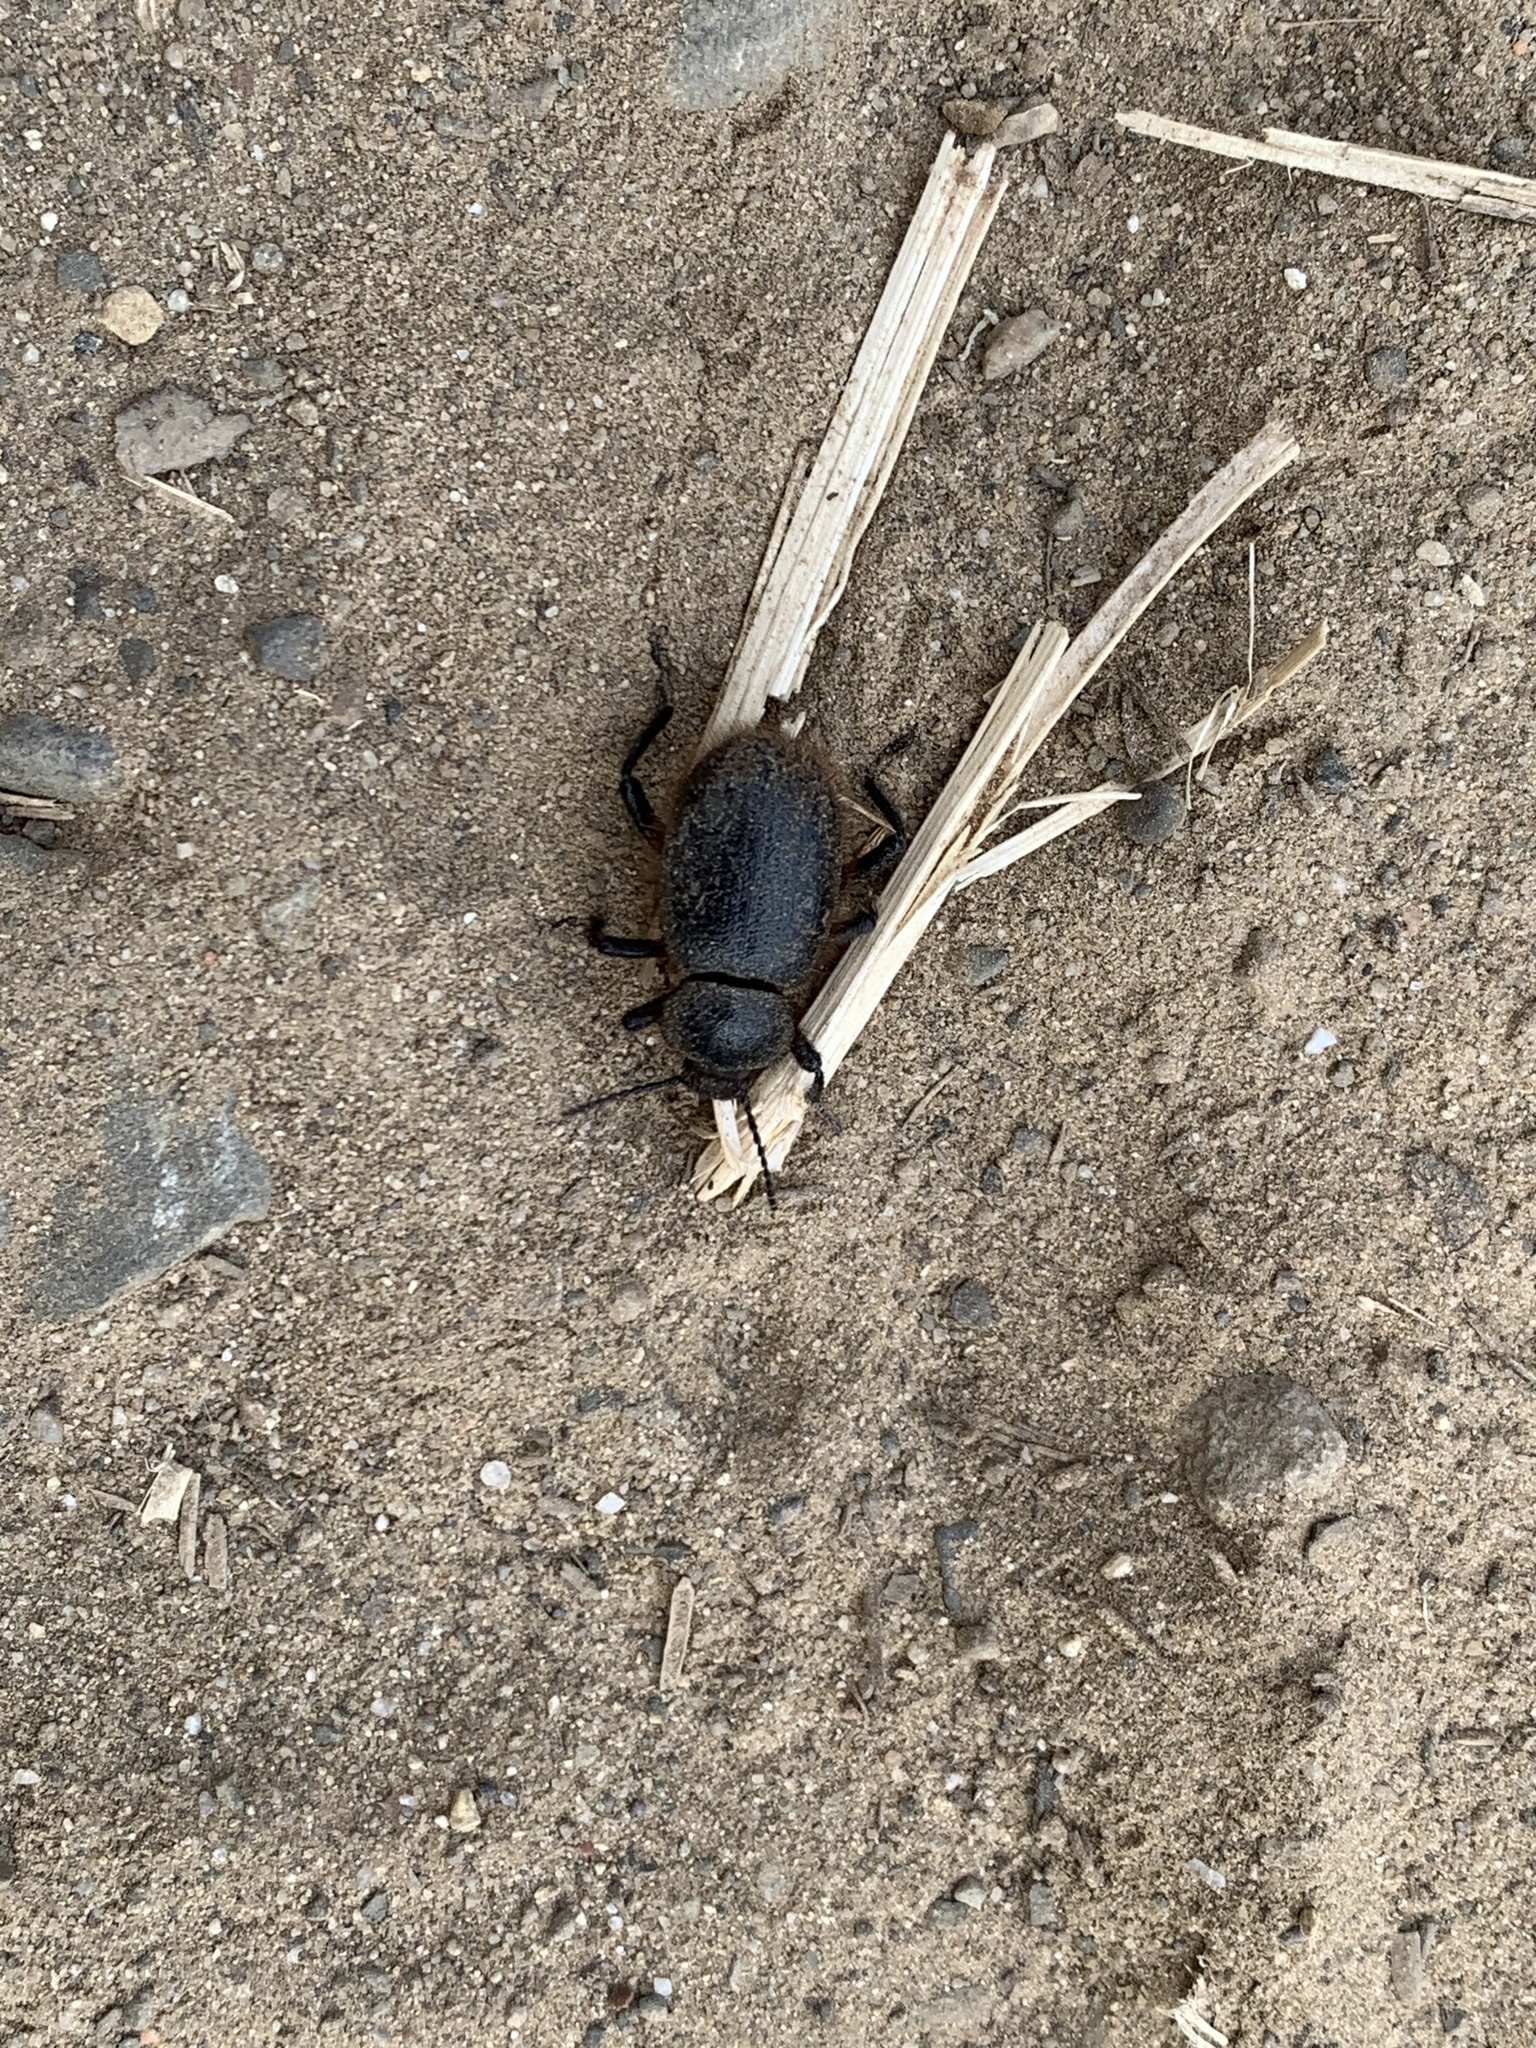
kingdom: Animalia
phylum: Arthropoda
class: Insecta
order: Coleoptera
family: Tenebrionidae
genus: Eleodes
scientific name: Eleodes osculans
